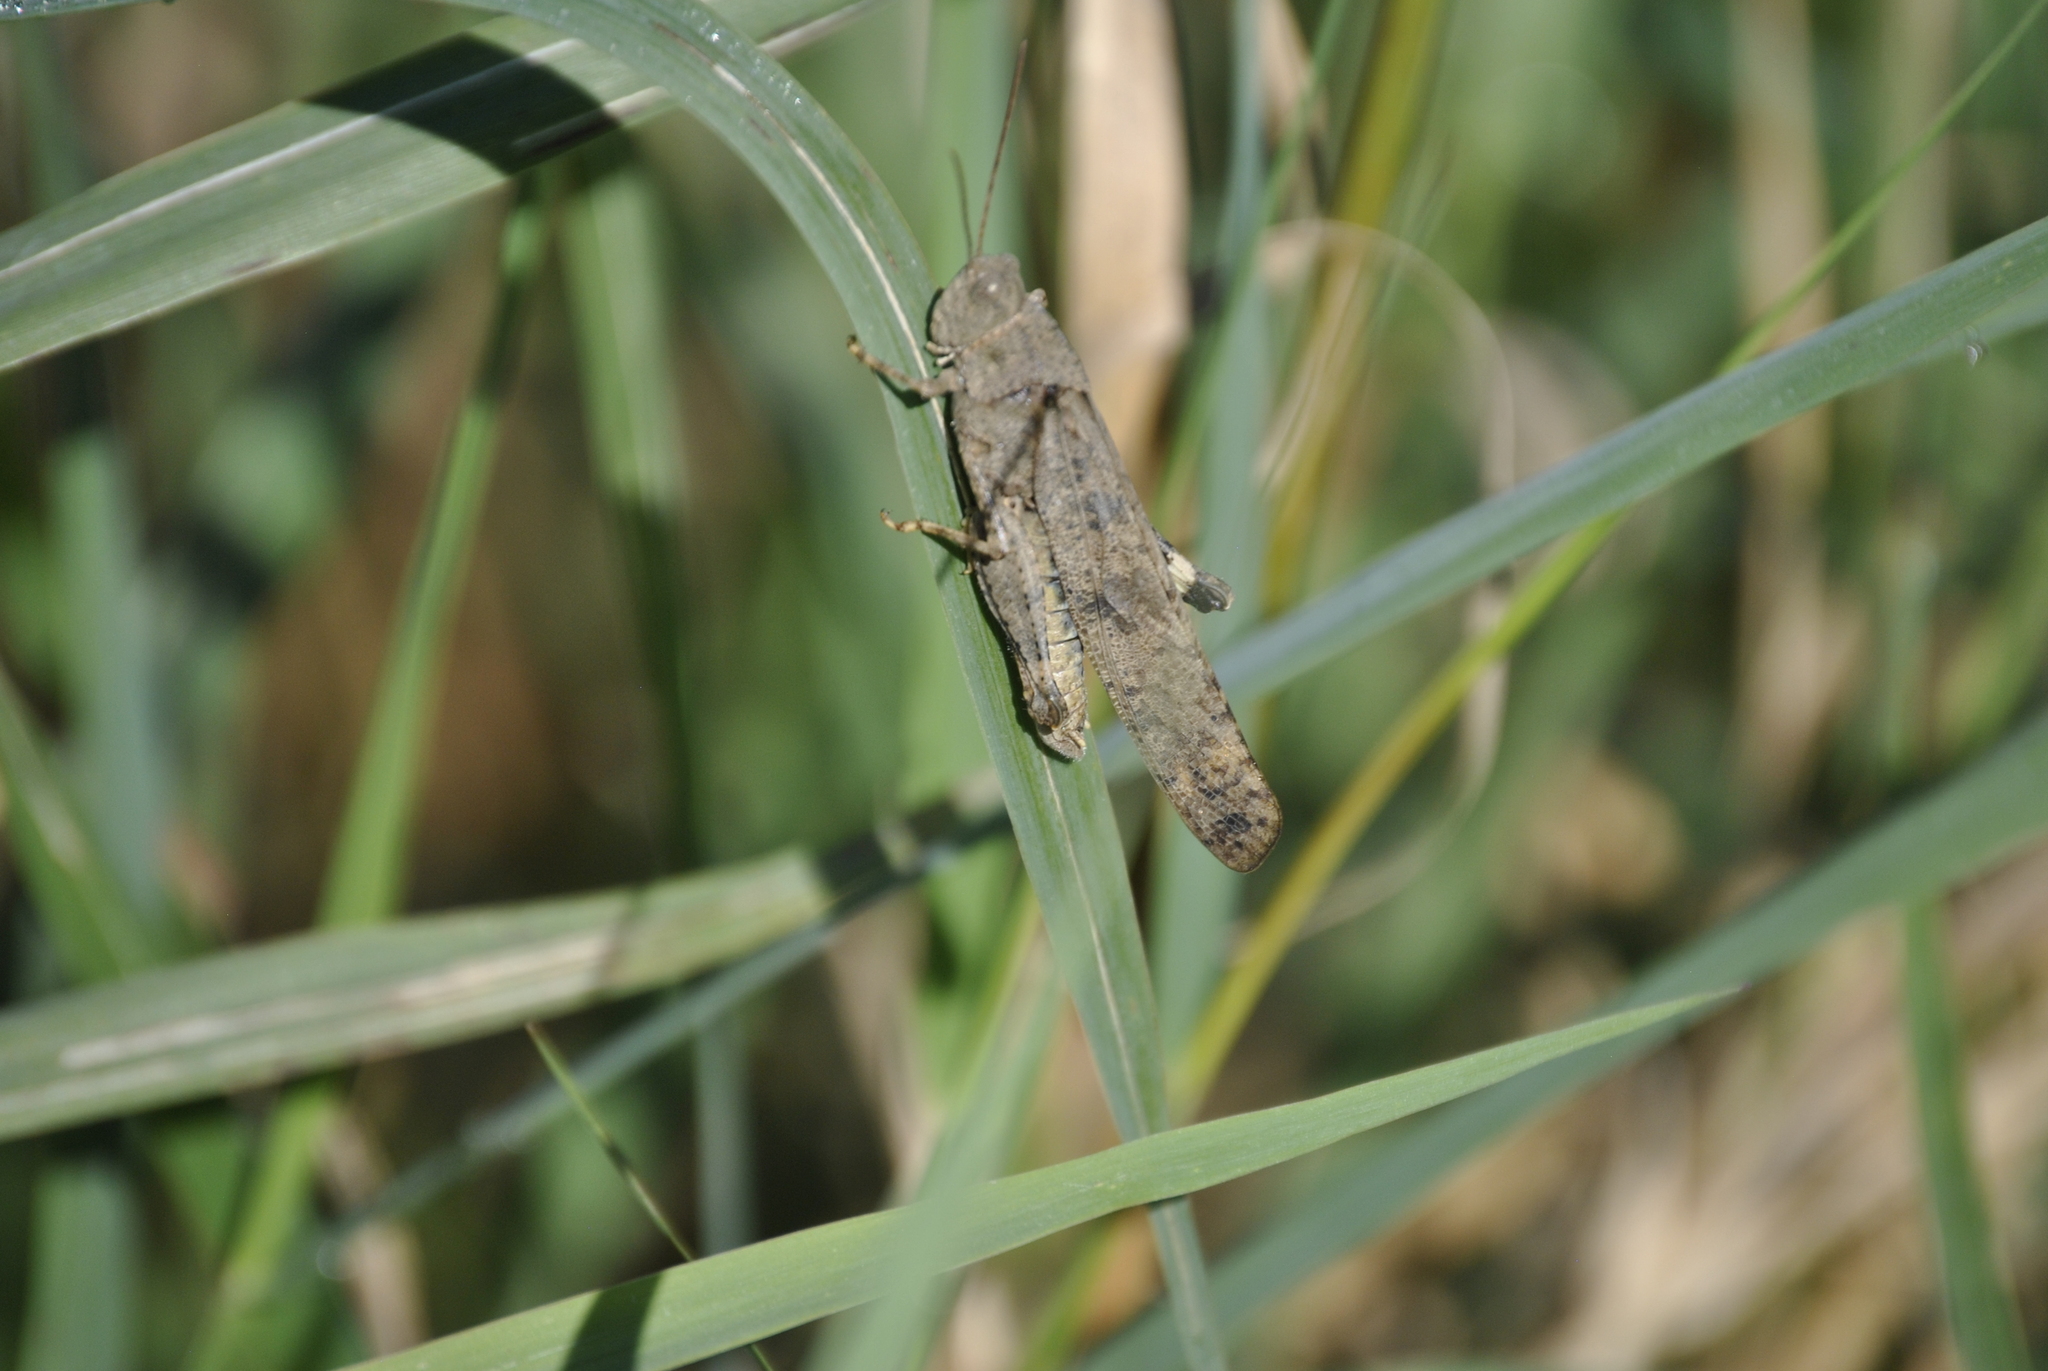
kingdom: Animalia
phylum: Arthropoda
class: Insecta
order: Orthoptera
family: Acrididae
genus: Dissosteira
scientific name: Dissosteira carolina
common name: Carolina grasshopper
